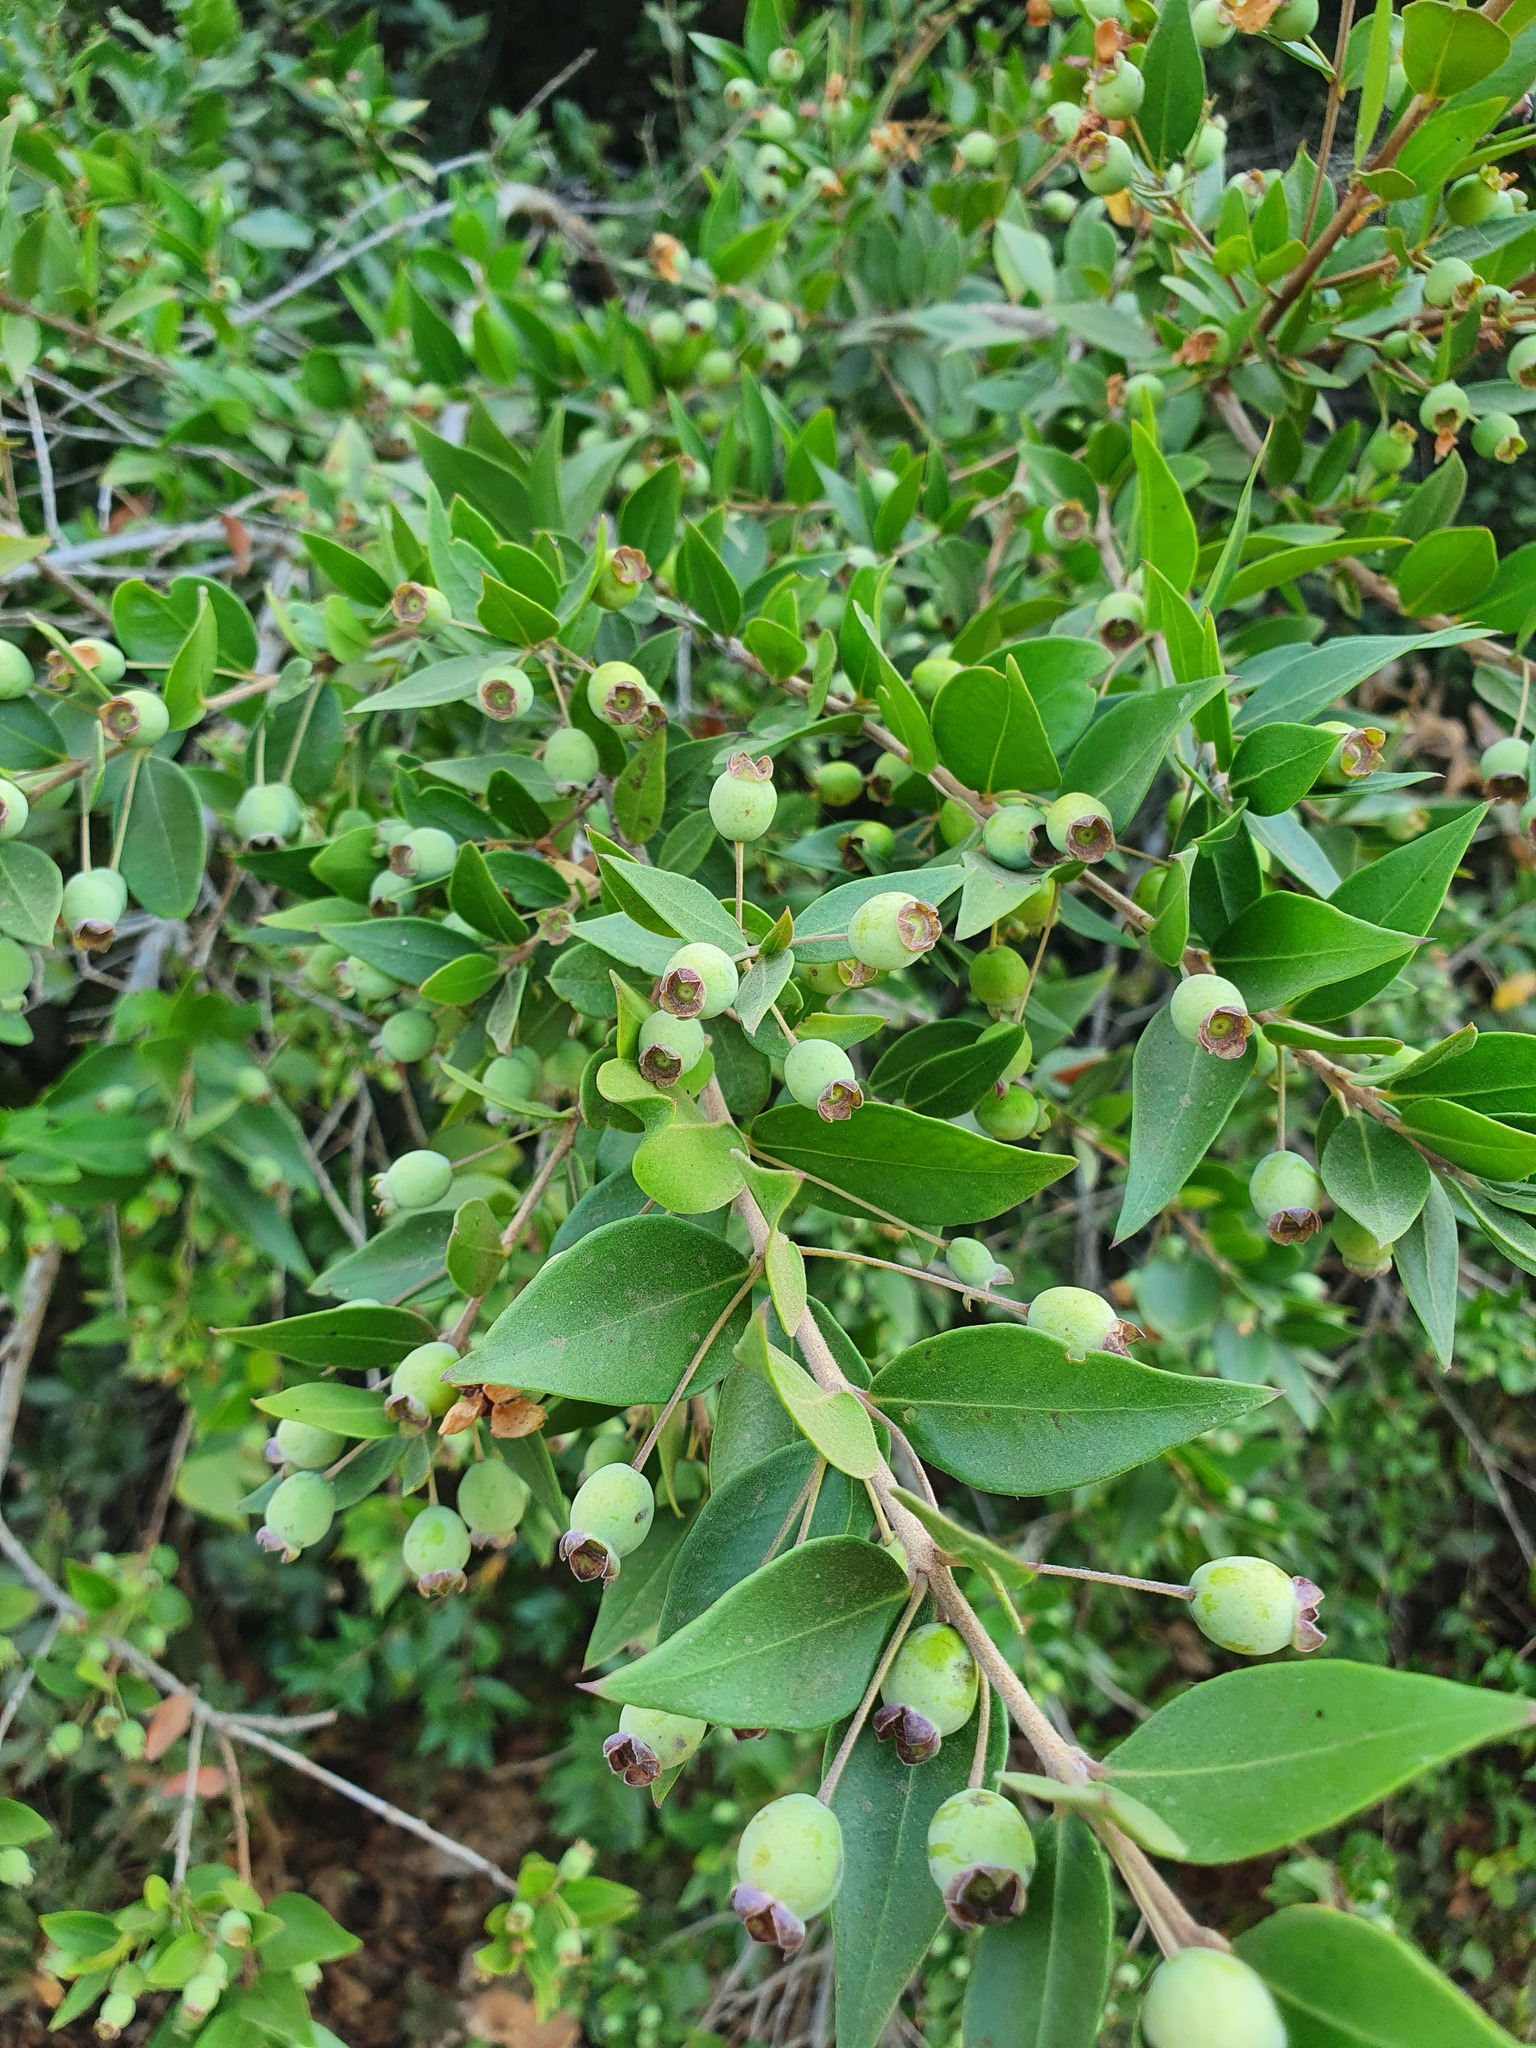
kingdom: Plantae
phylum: Tracheophyta
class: Magnoliopsida
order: Myrtales
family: Myrtaceae
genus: Myrtus
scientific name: Myrtus communis
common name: Myrtle
